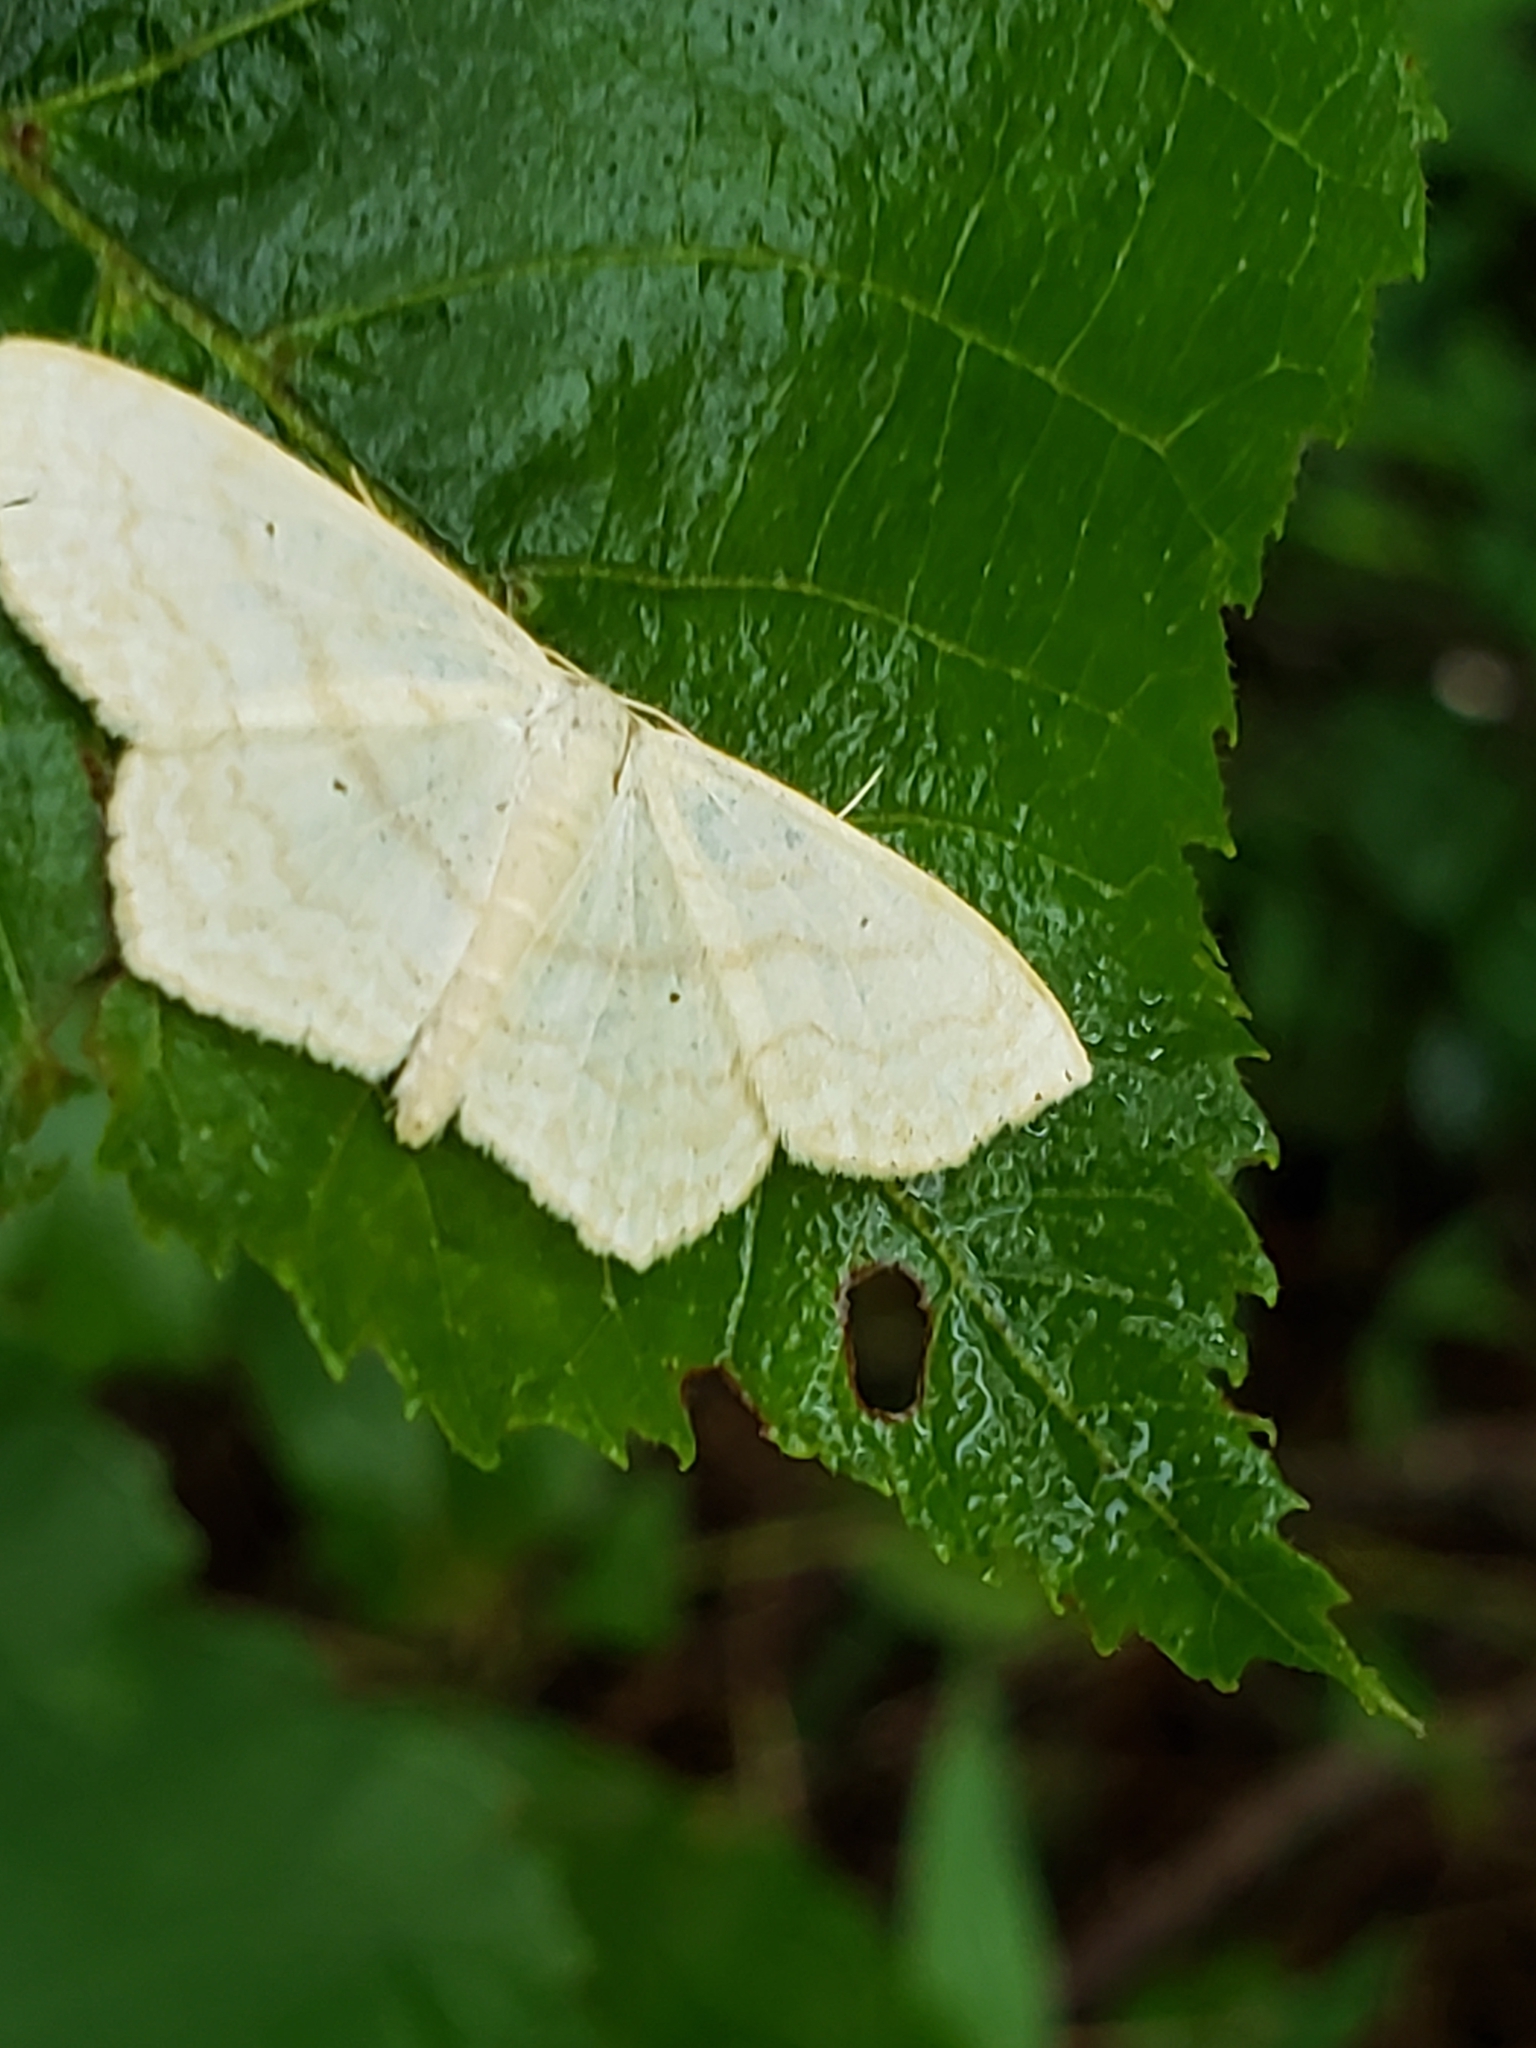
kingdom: Animalia
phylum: Arthropoda
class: Insecta
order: Lepidoptera
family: Geometridae
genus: Scopula
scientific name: Scopula limboundata
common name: Large lace border
